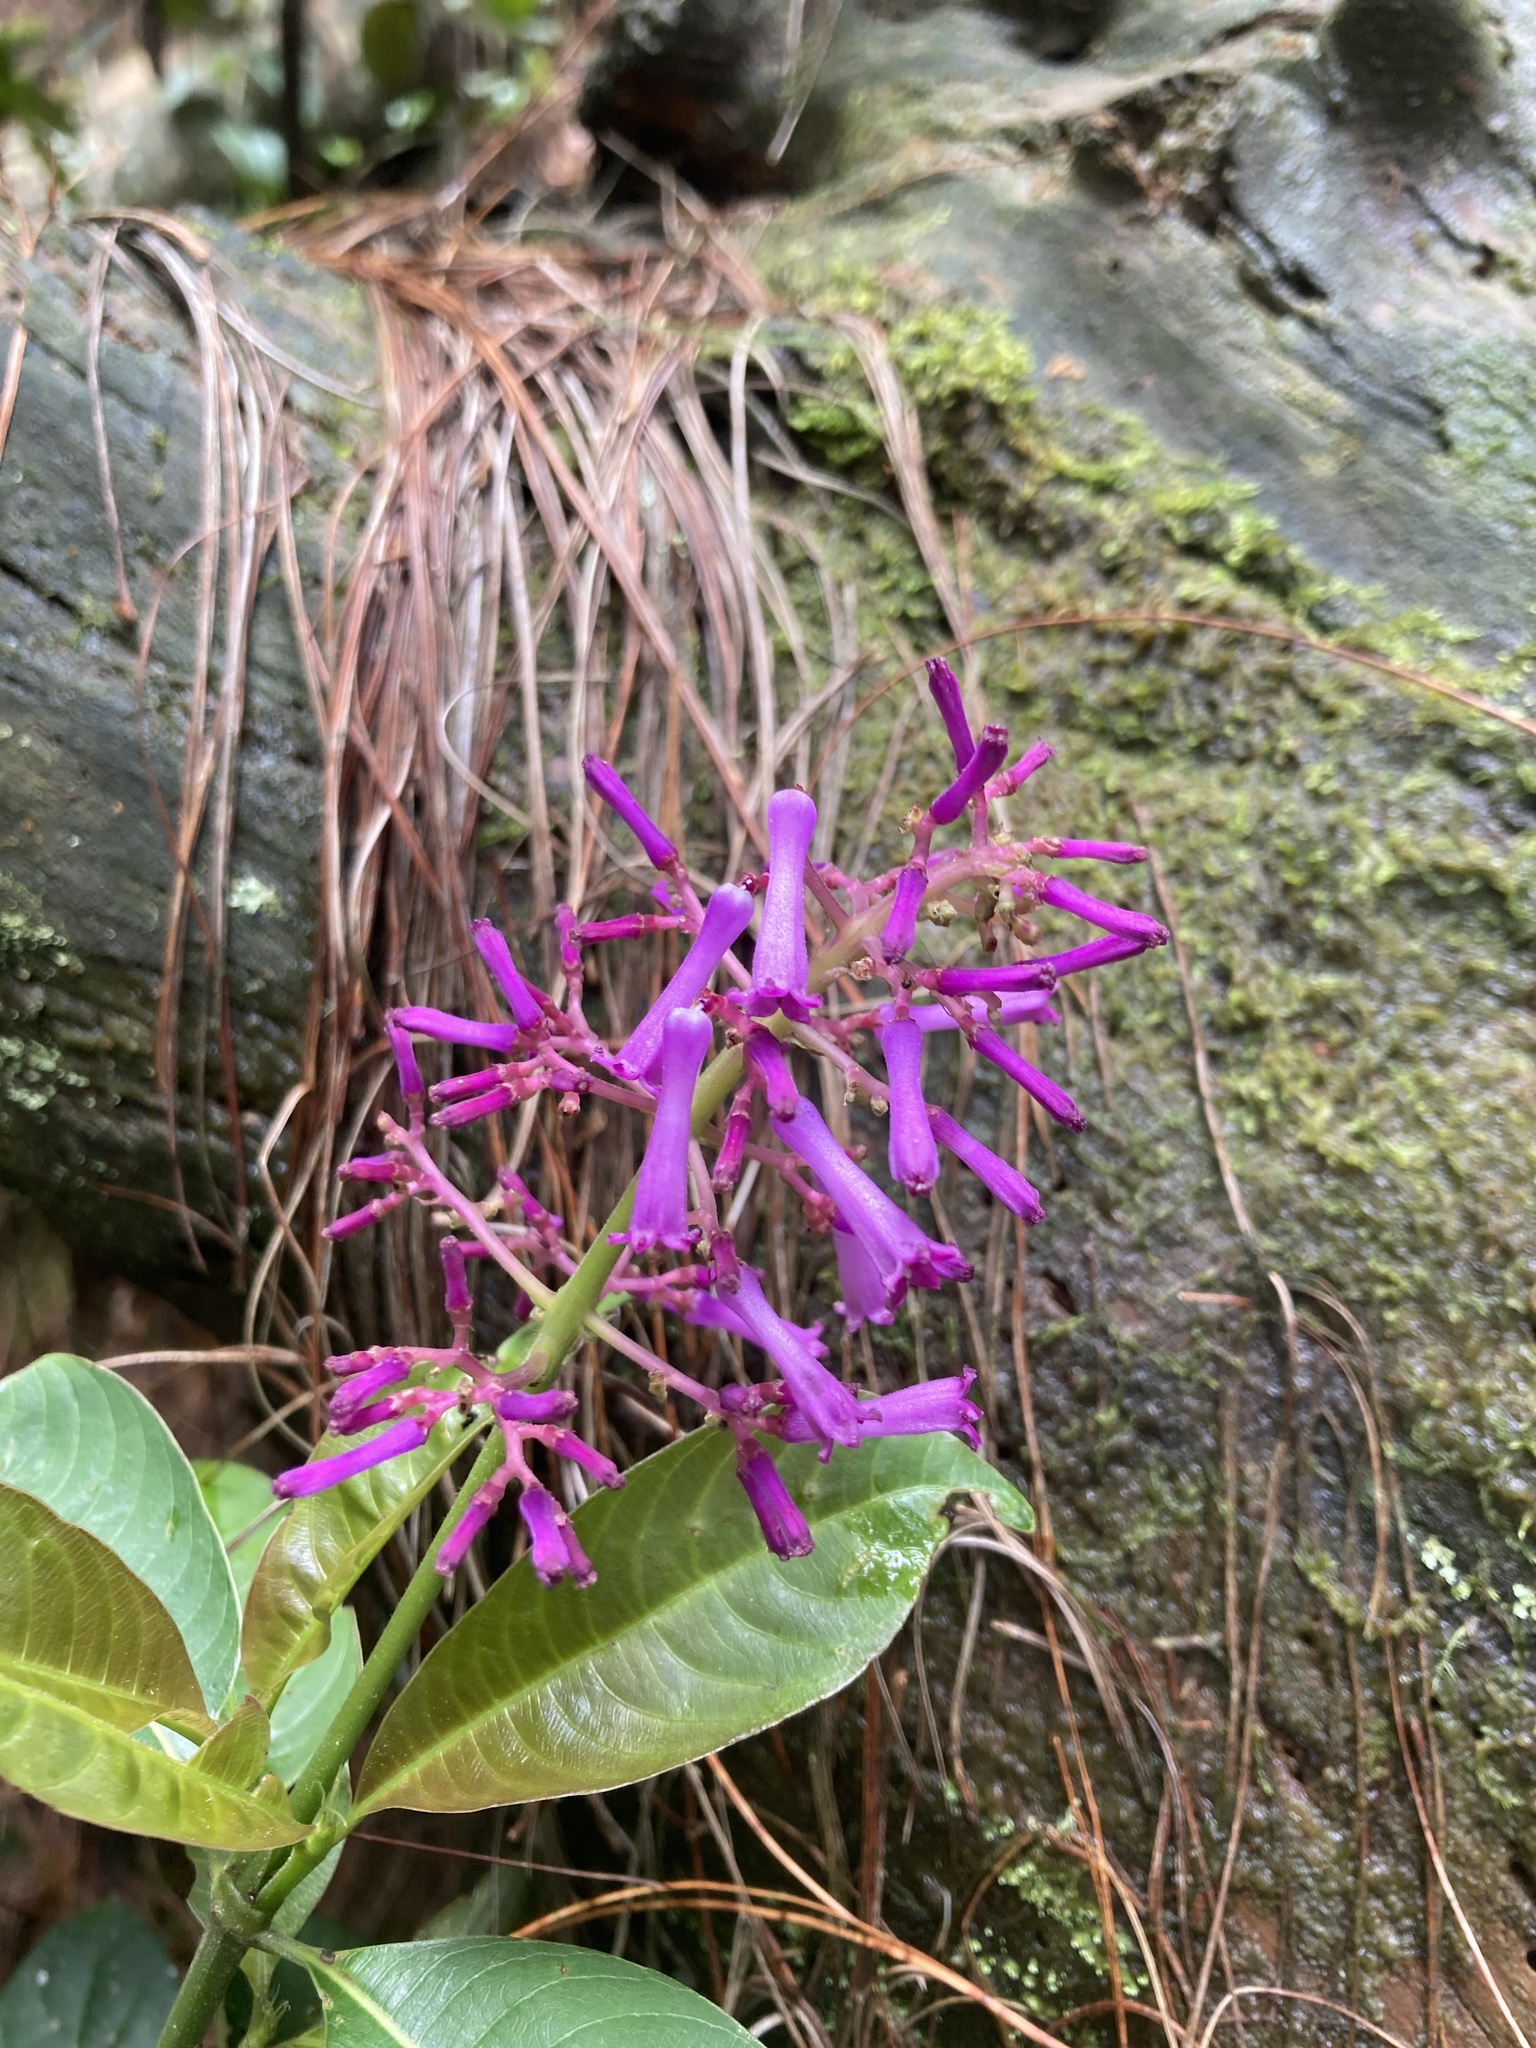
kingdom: Plantae
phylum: Tracheophyta
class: Magnoliopsida
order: Gentianales
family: Rubiaceae
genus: Palicourea
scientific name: Palicourea angustifolia
